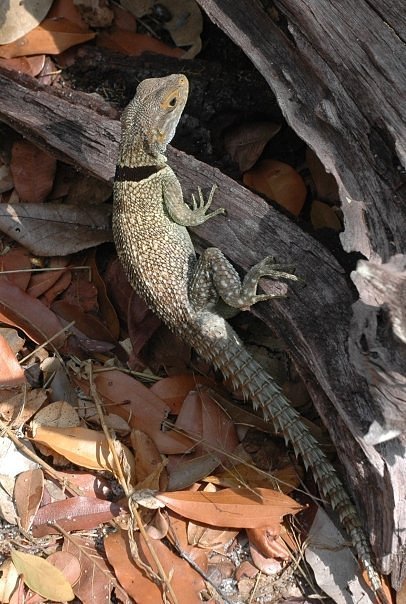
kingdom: Animalia
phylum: Chordata
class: Squamata
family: Opluridae
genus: Oplurus
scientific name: Oplurus cuvieri
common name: Cuvier's madagascar swift
